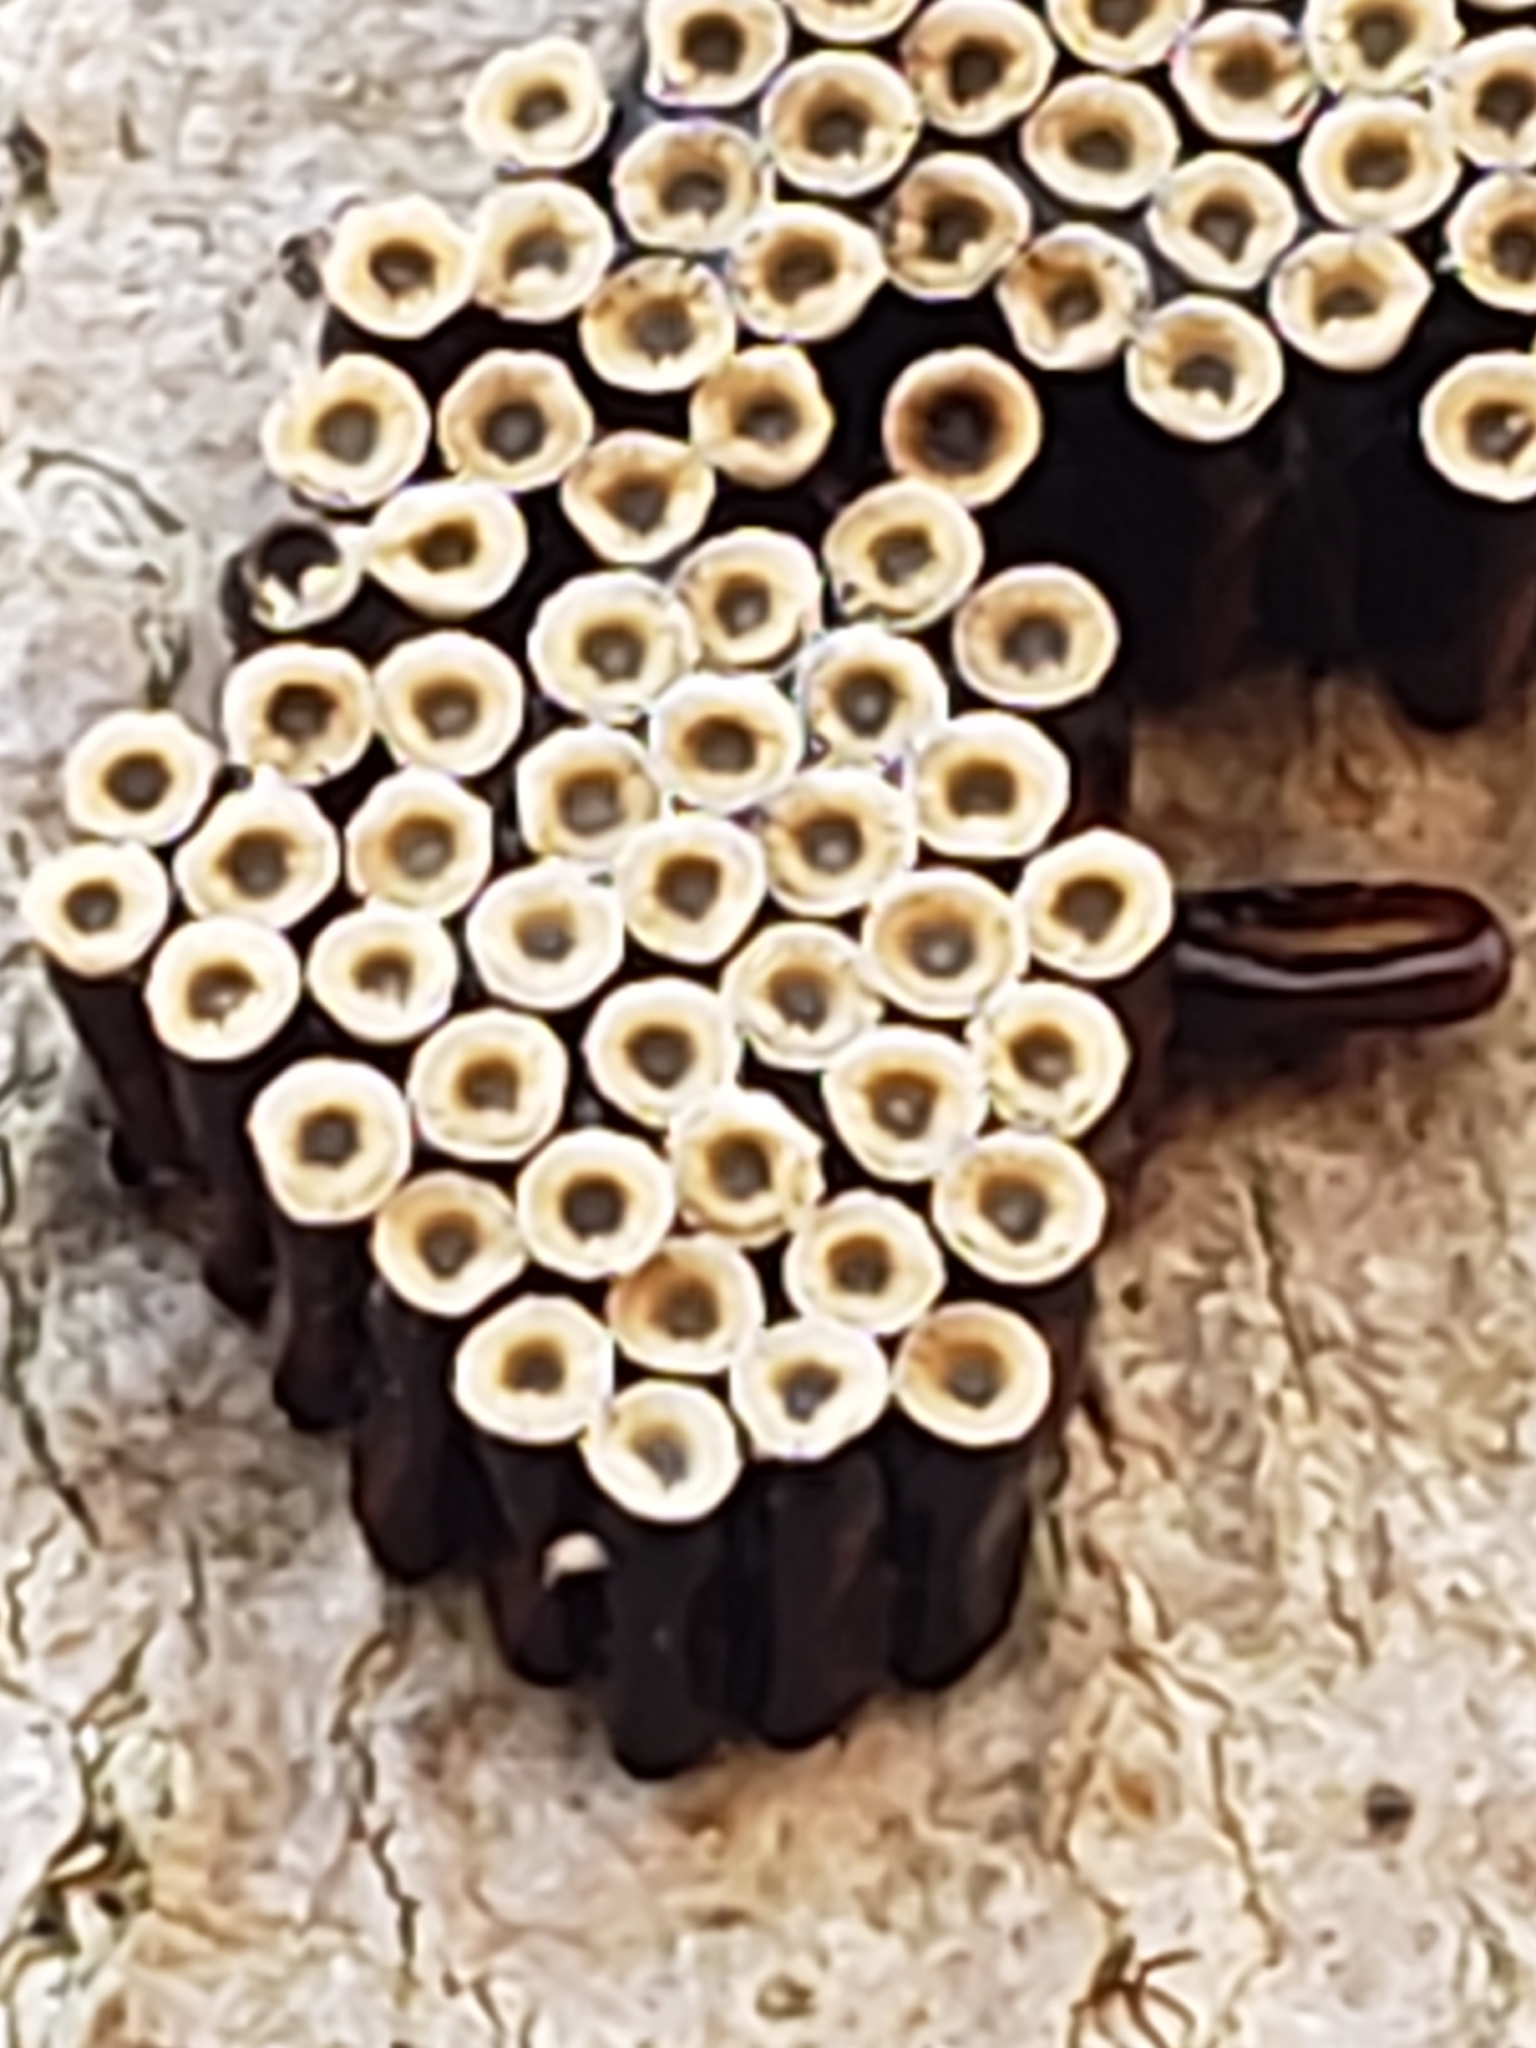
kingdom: Animalia
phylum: Arthropoda
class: Insecta
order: Hemiptera
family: Reduviidae
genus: Arilus
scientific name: Arilus cristatus
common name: North american wheel bug
